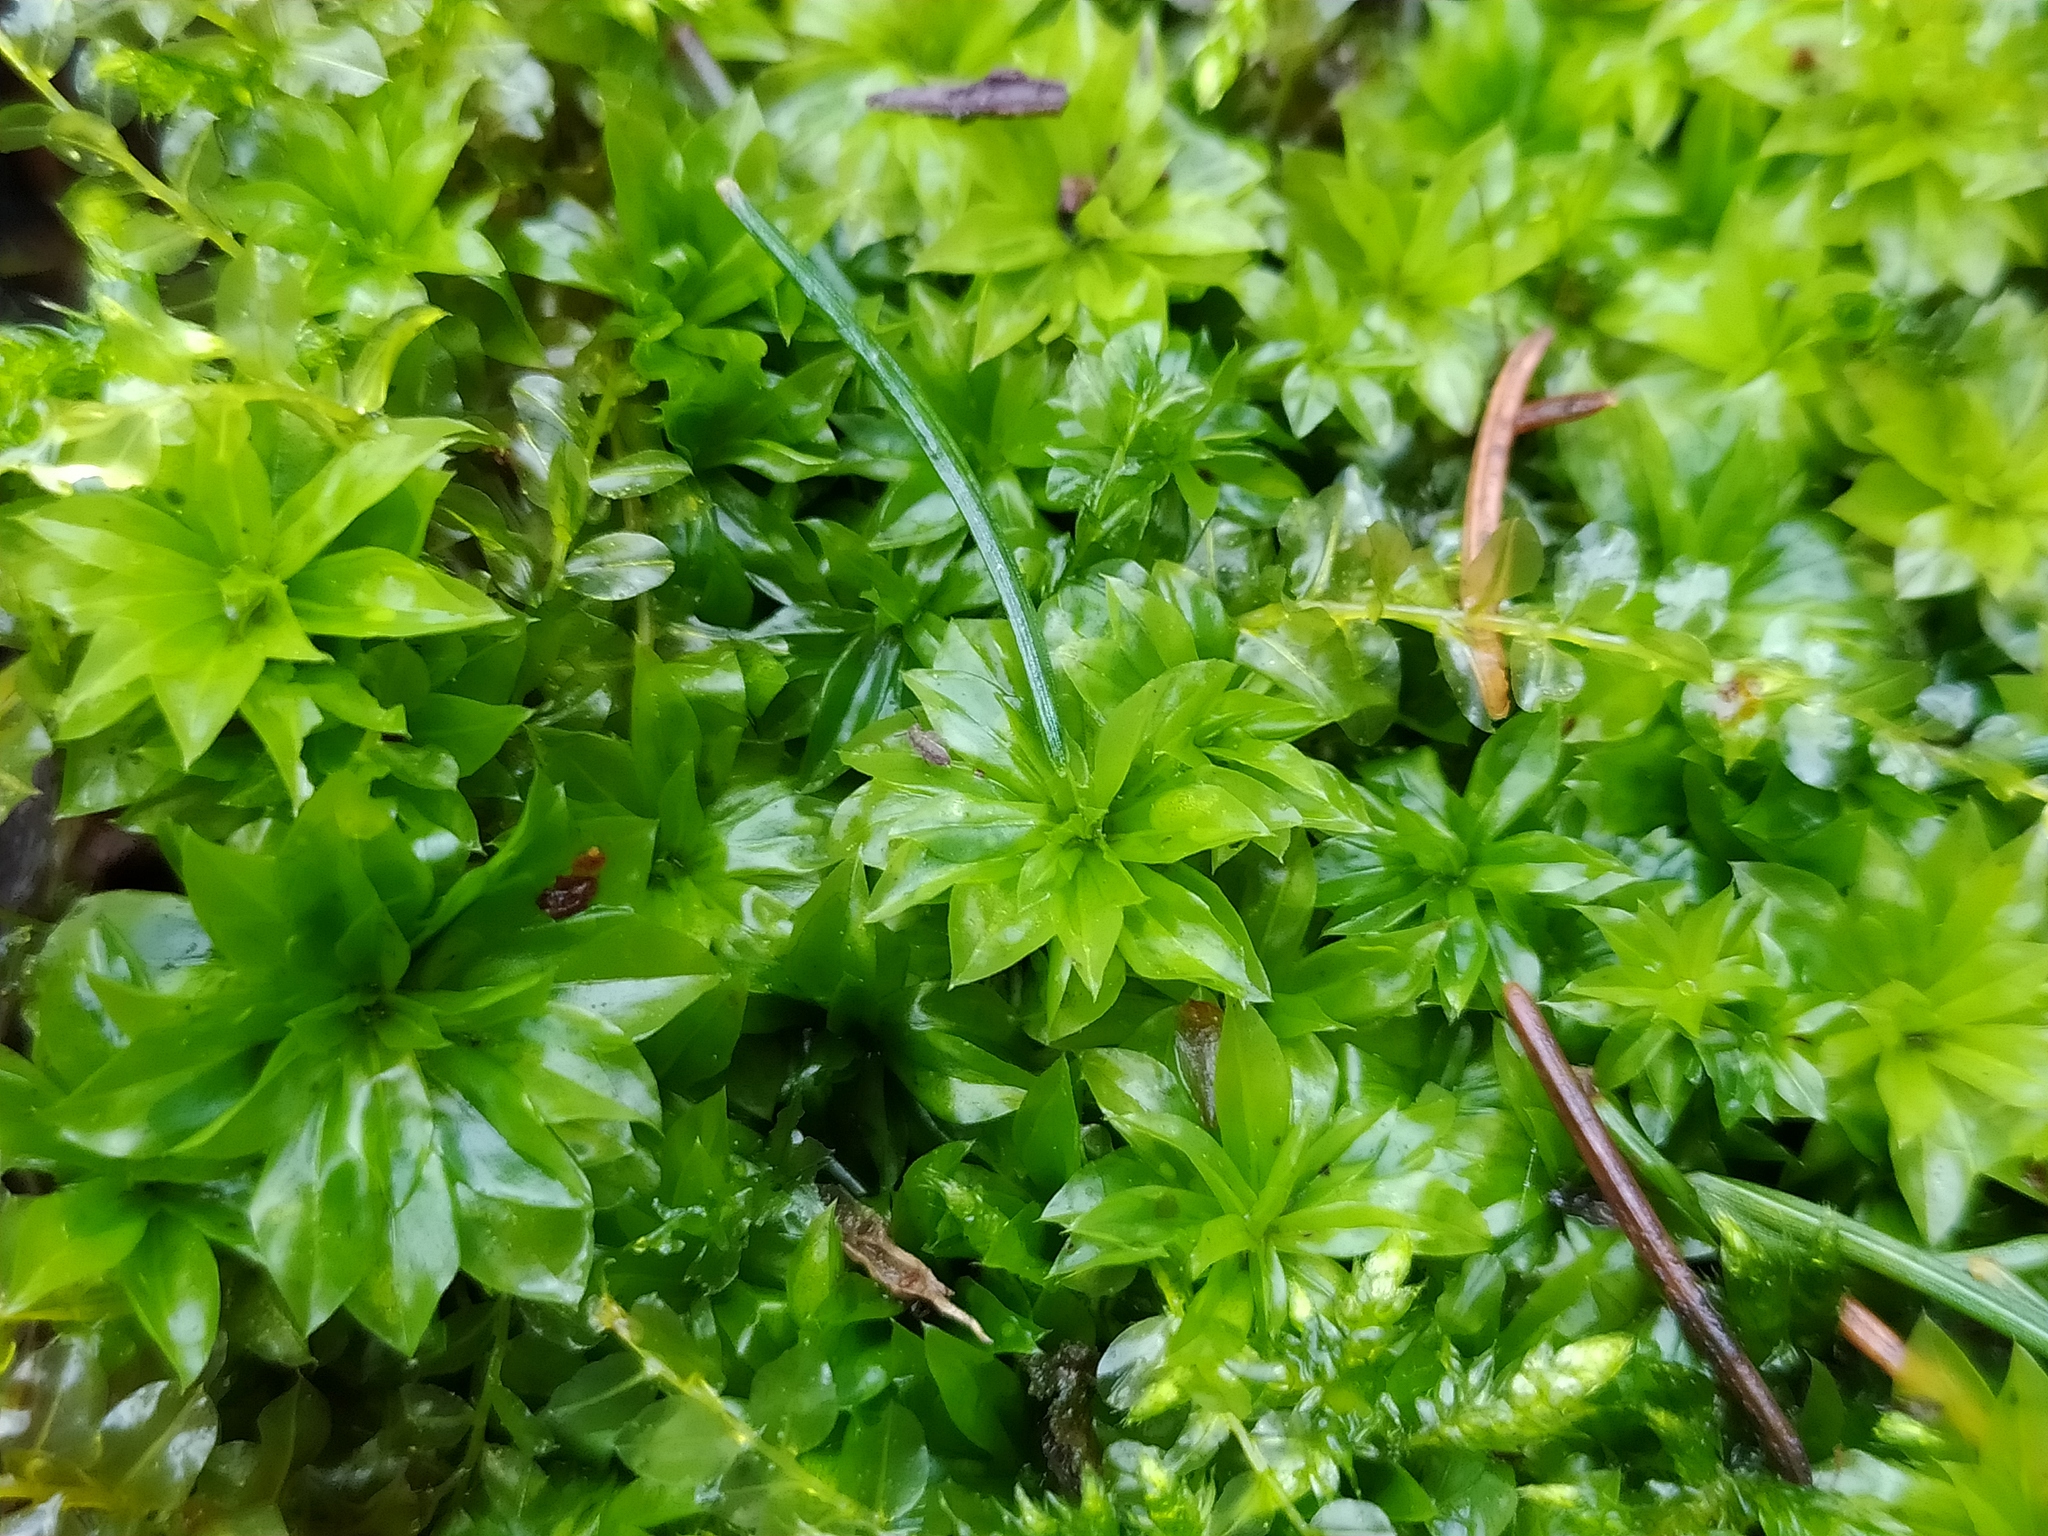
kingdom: Plantae
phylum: Bryophyta
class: Bryopsida
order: Bryales
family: Bryaceae
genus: Rhodobryum
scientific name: Rhodobryum roseum
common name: Rose-moss
